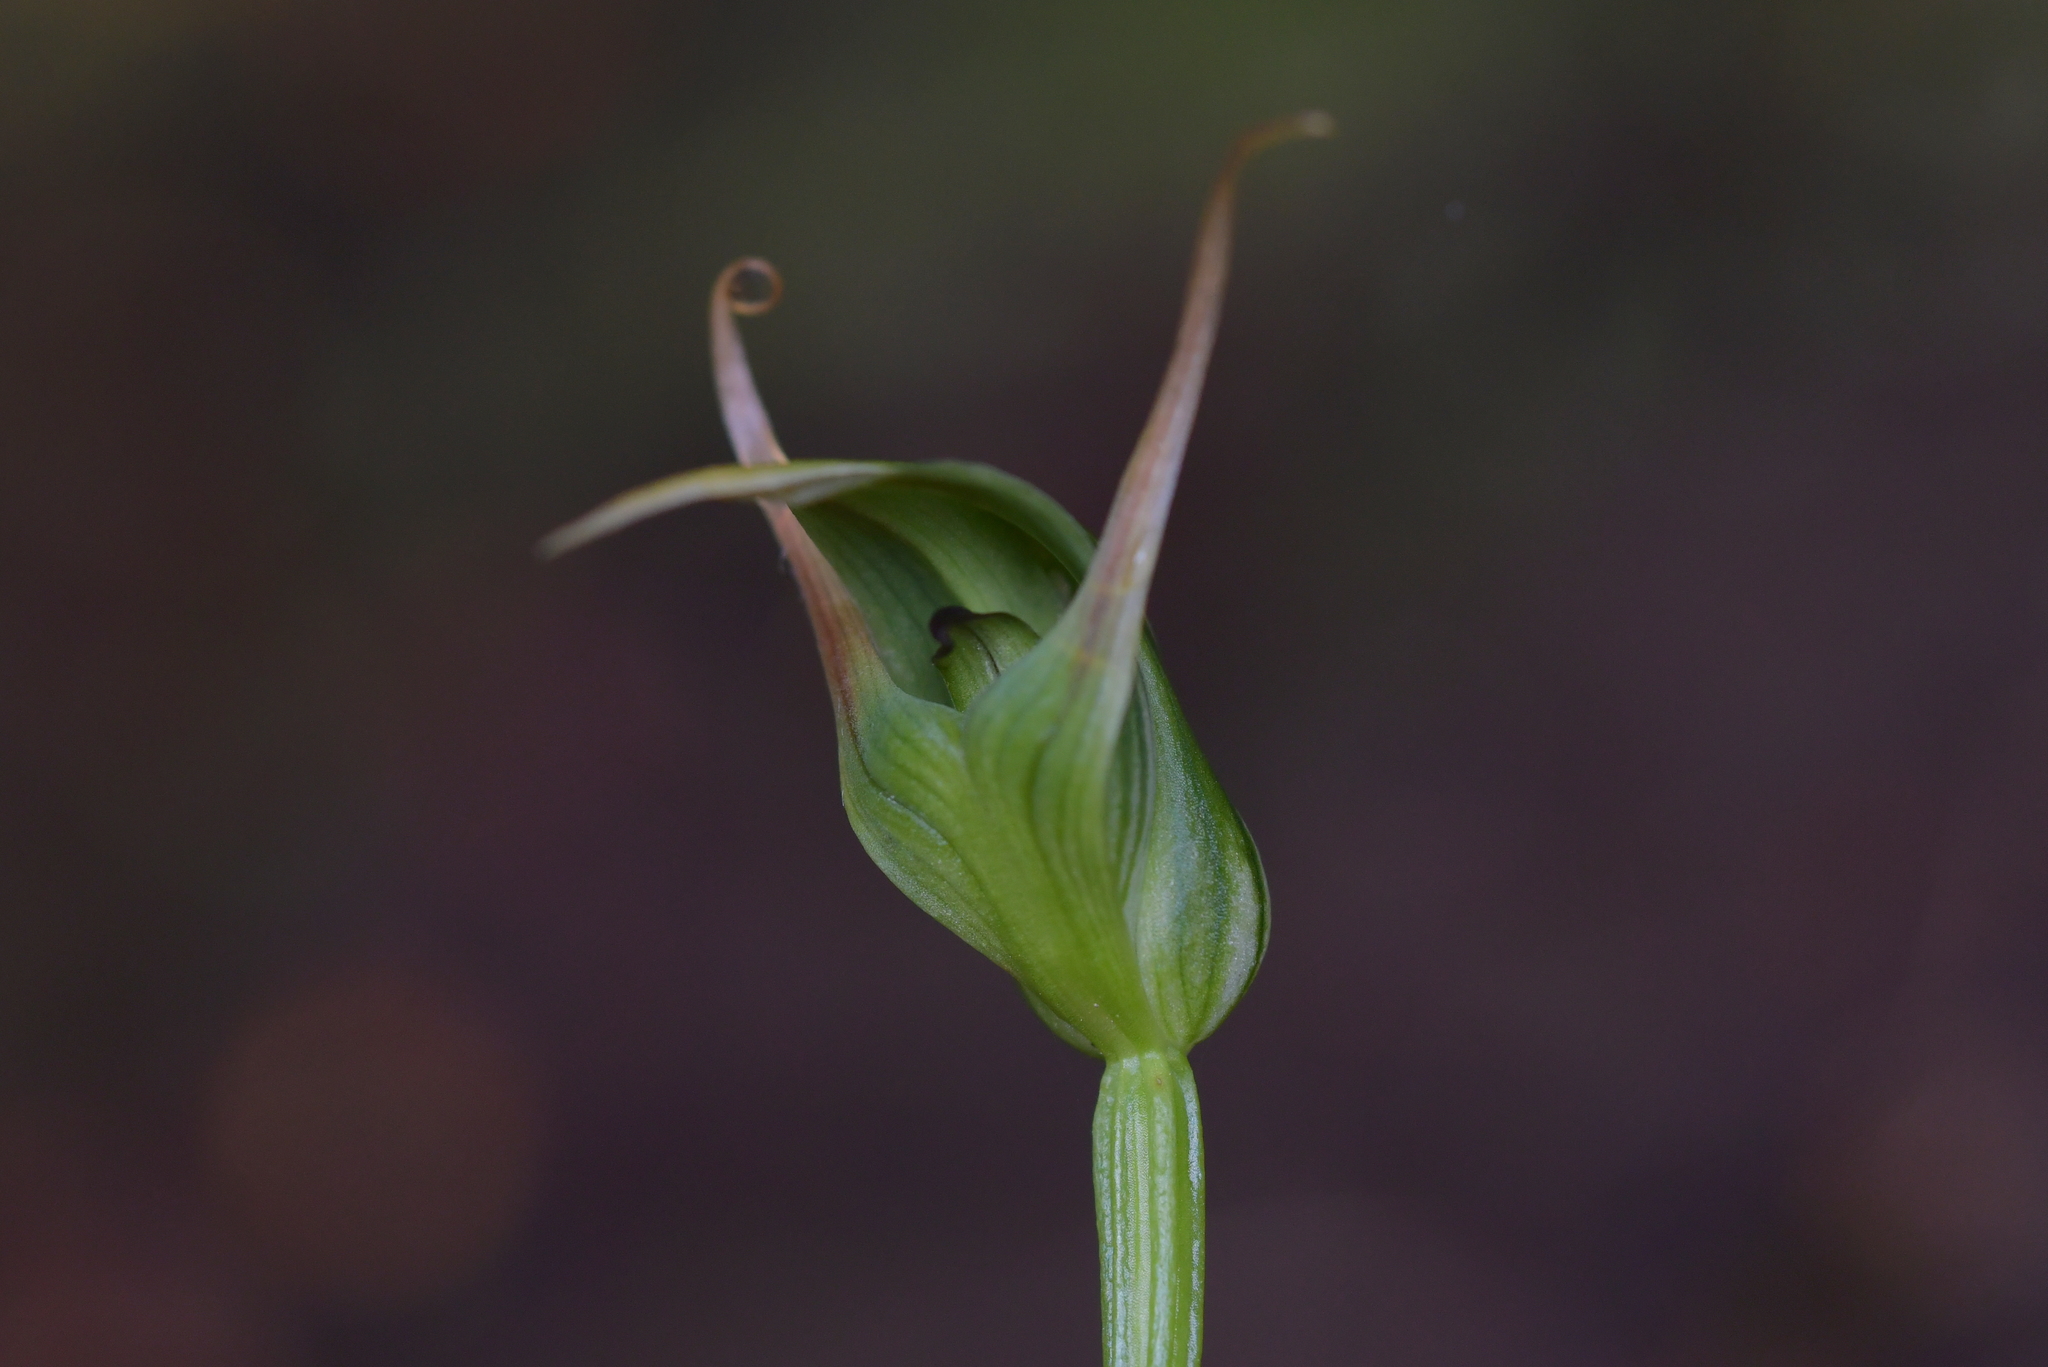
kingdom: Plantae
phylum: Tracheophyta
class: Liliopsida
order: Asparagales
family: Orchidaceae
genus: Pterostylis
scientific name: Pterostylis graminea
